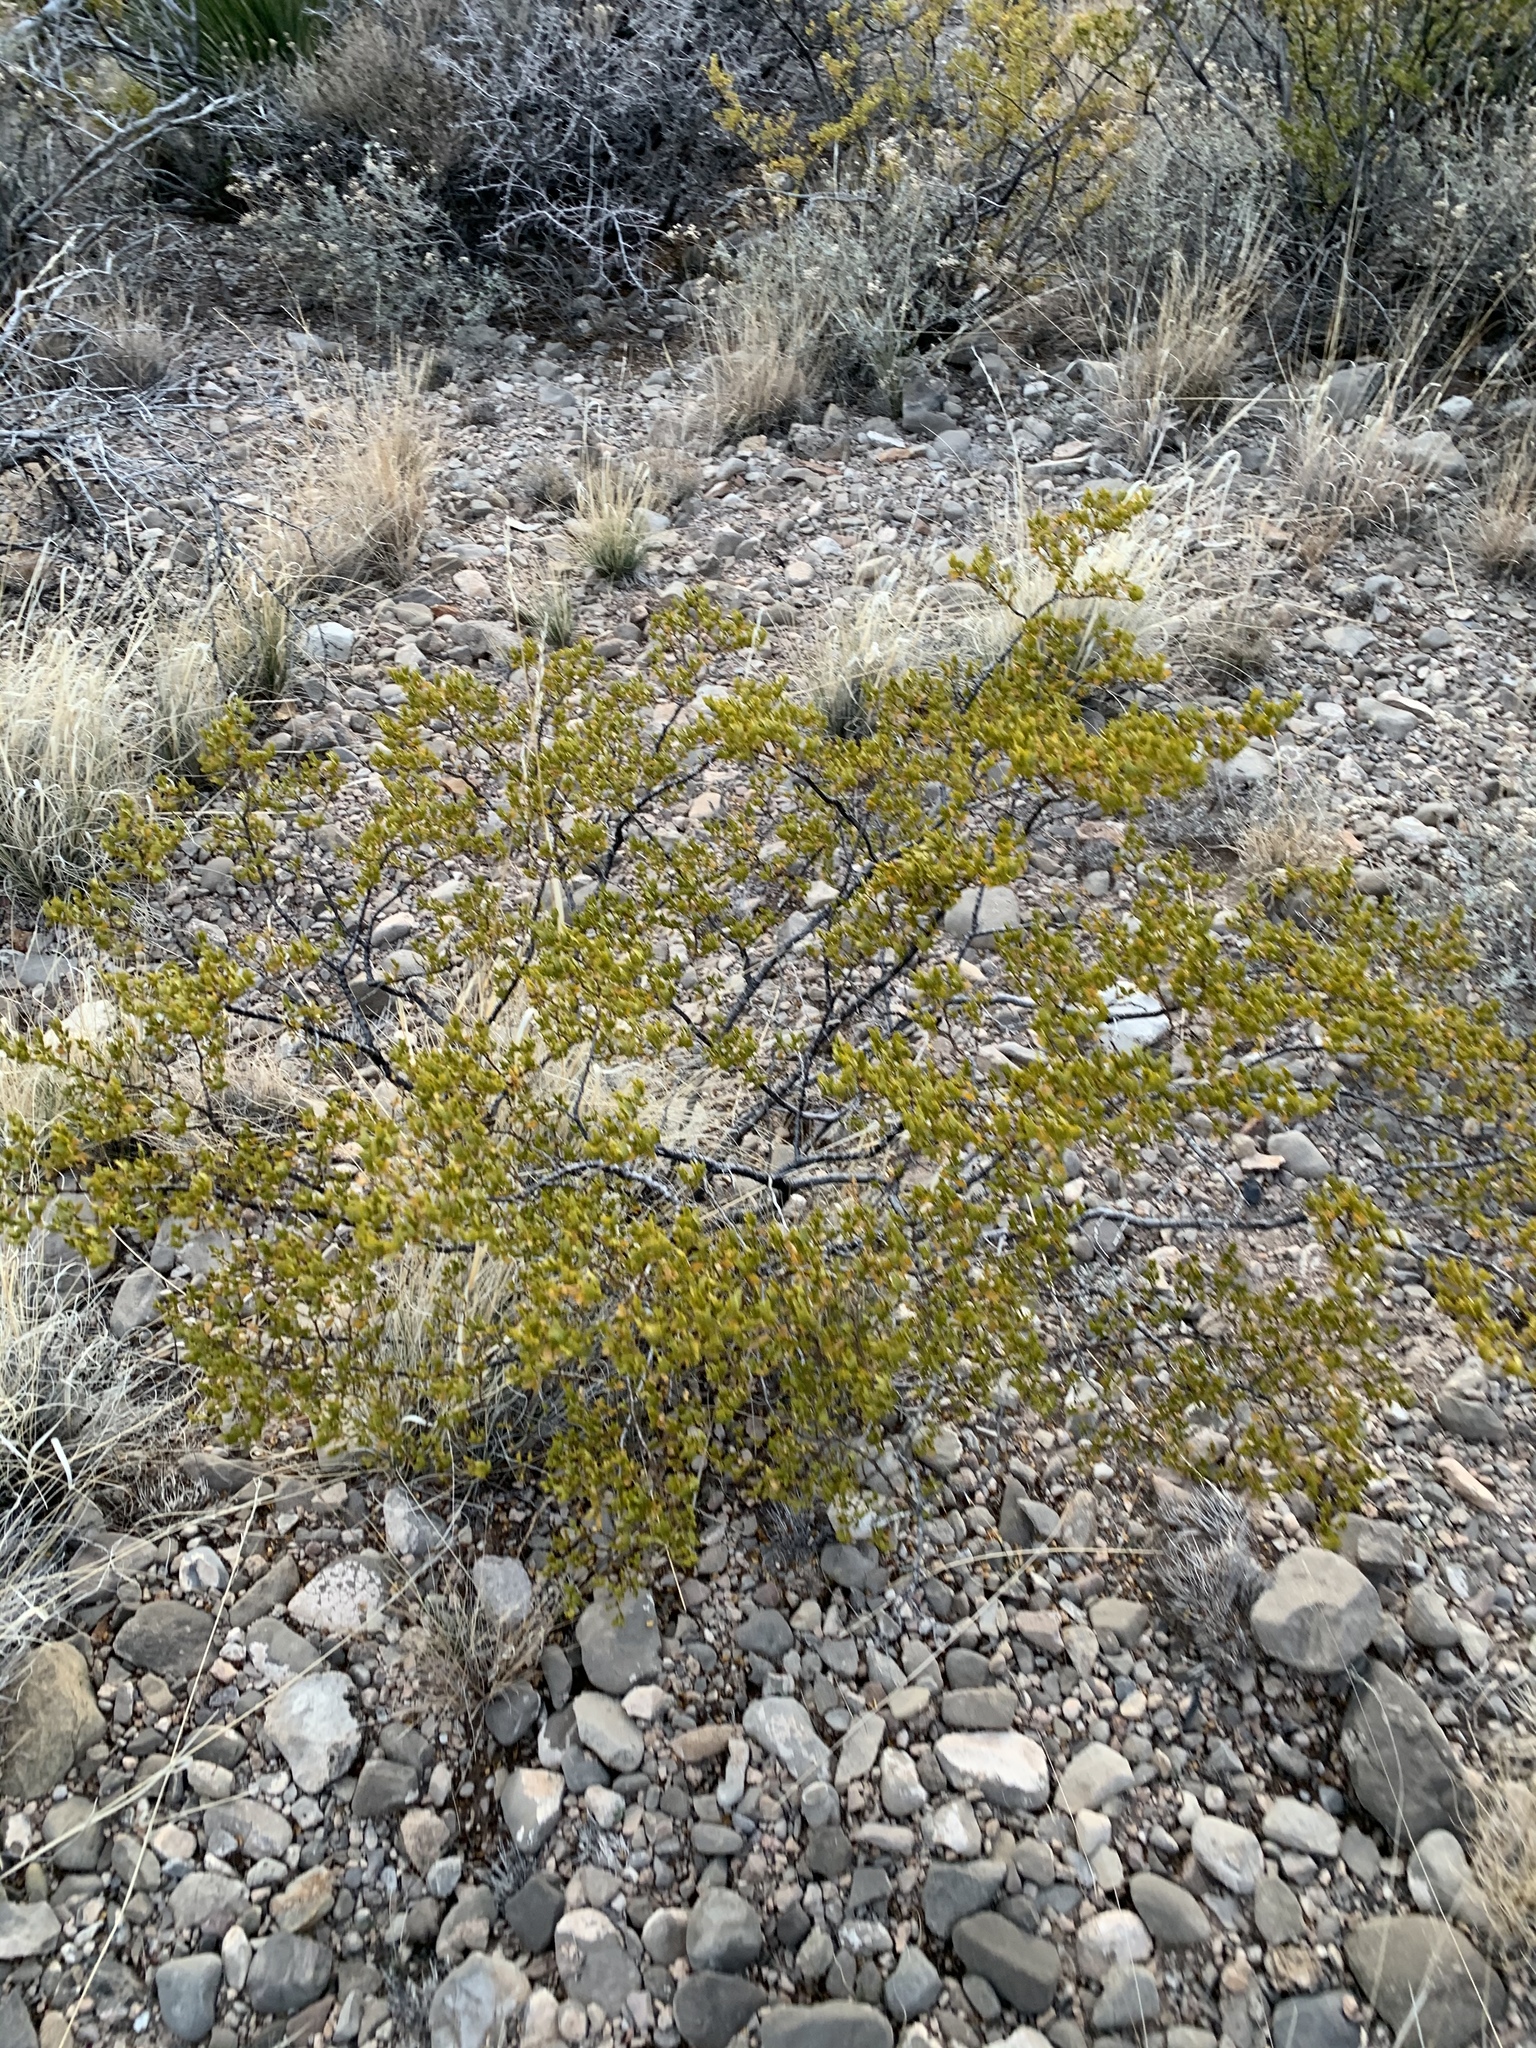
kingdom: Plantae
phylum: Tracheophyta
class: Magnoliopsida
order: Zygophyllales
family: Zygophyllaceae
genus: Larrea
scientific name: Larrea tridentata
